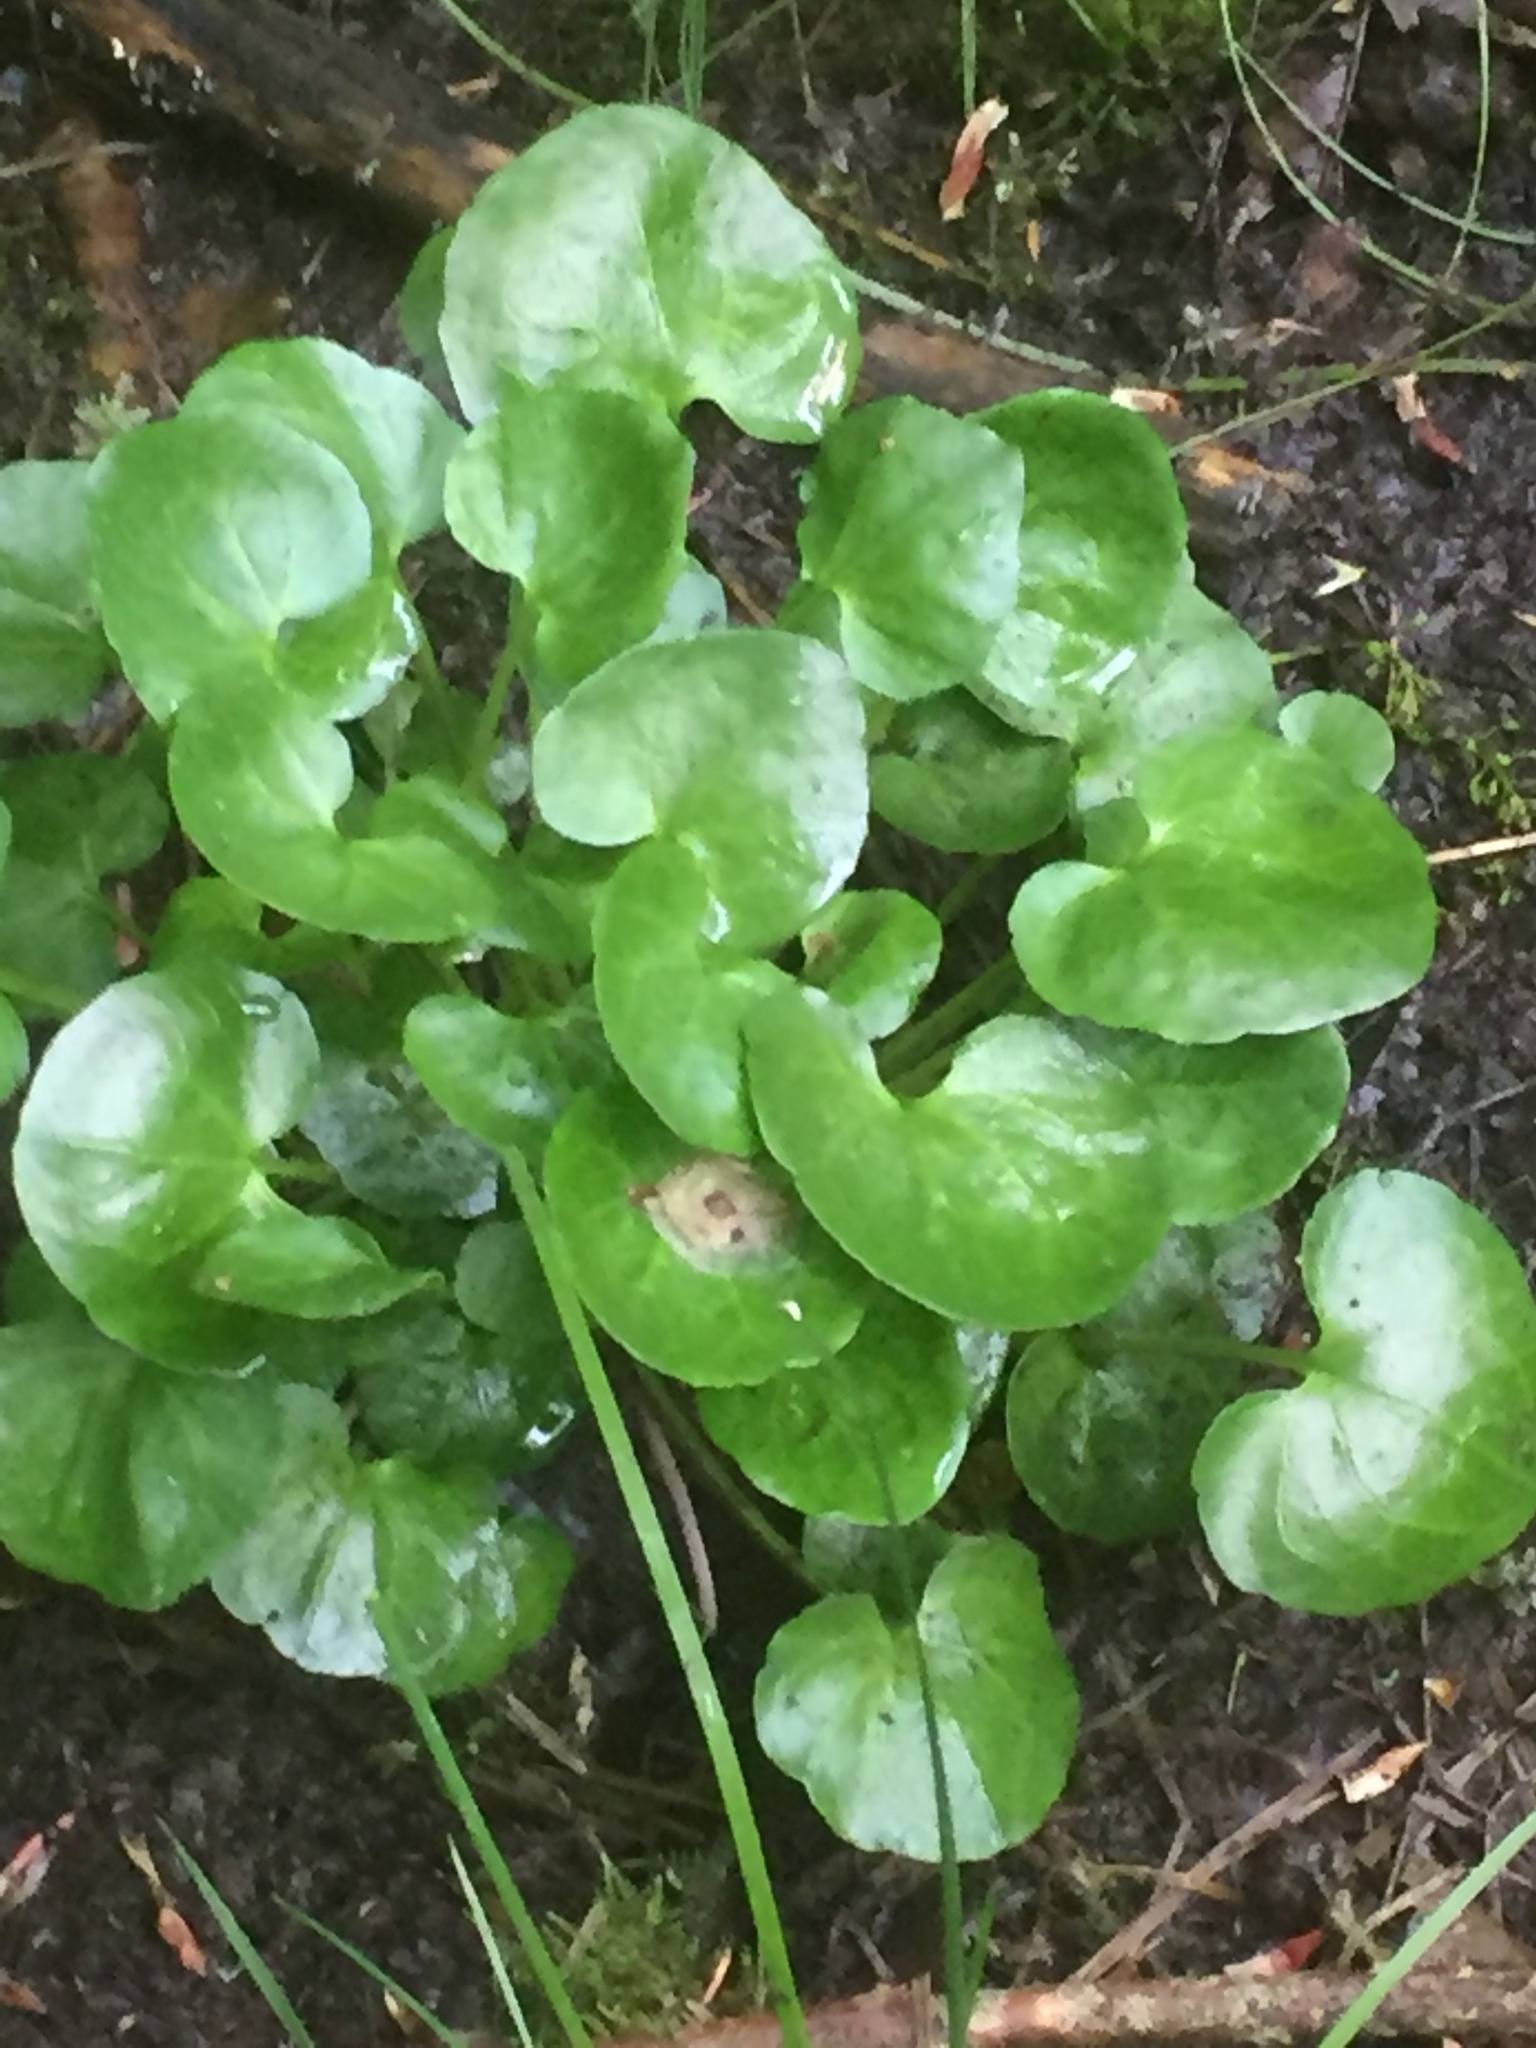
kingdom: Plantae
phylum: Tracheophyta
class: Magnoliopsida
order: Ranunculales
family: Ranunculaceae
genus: Ficaria
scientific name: Ficaria verna
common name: Lesser celandine
